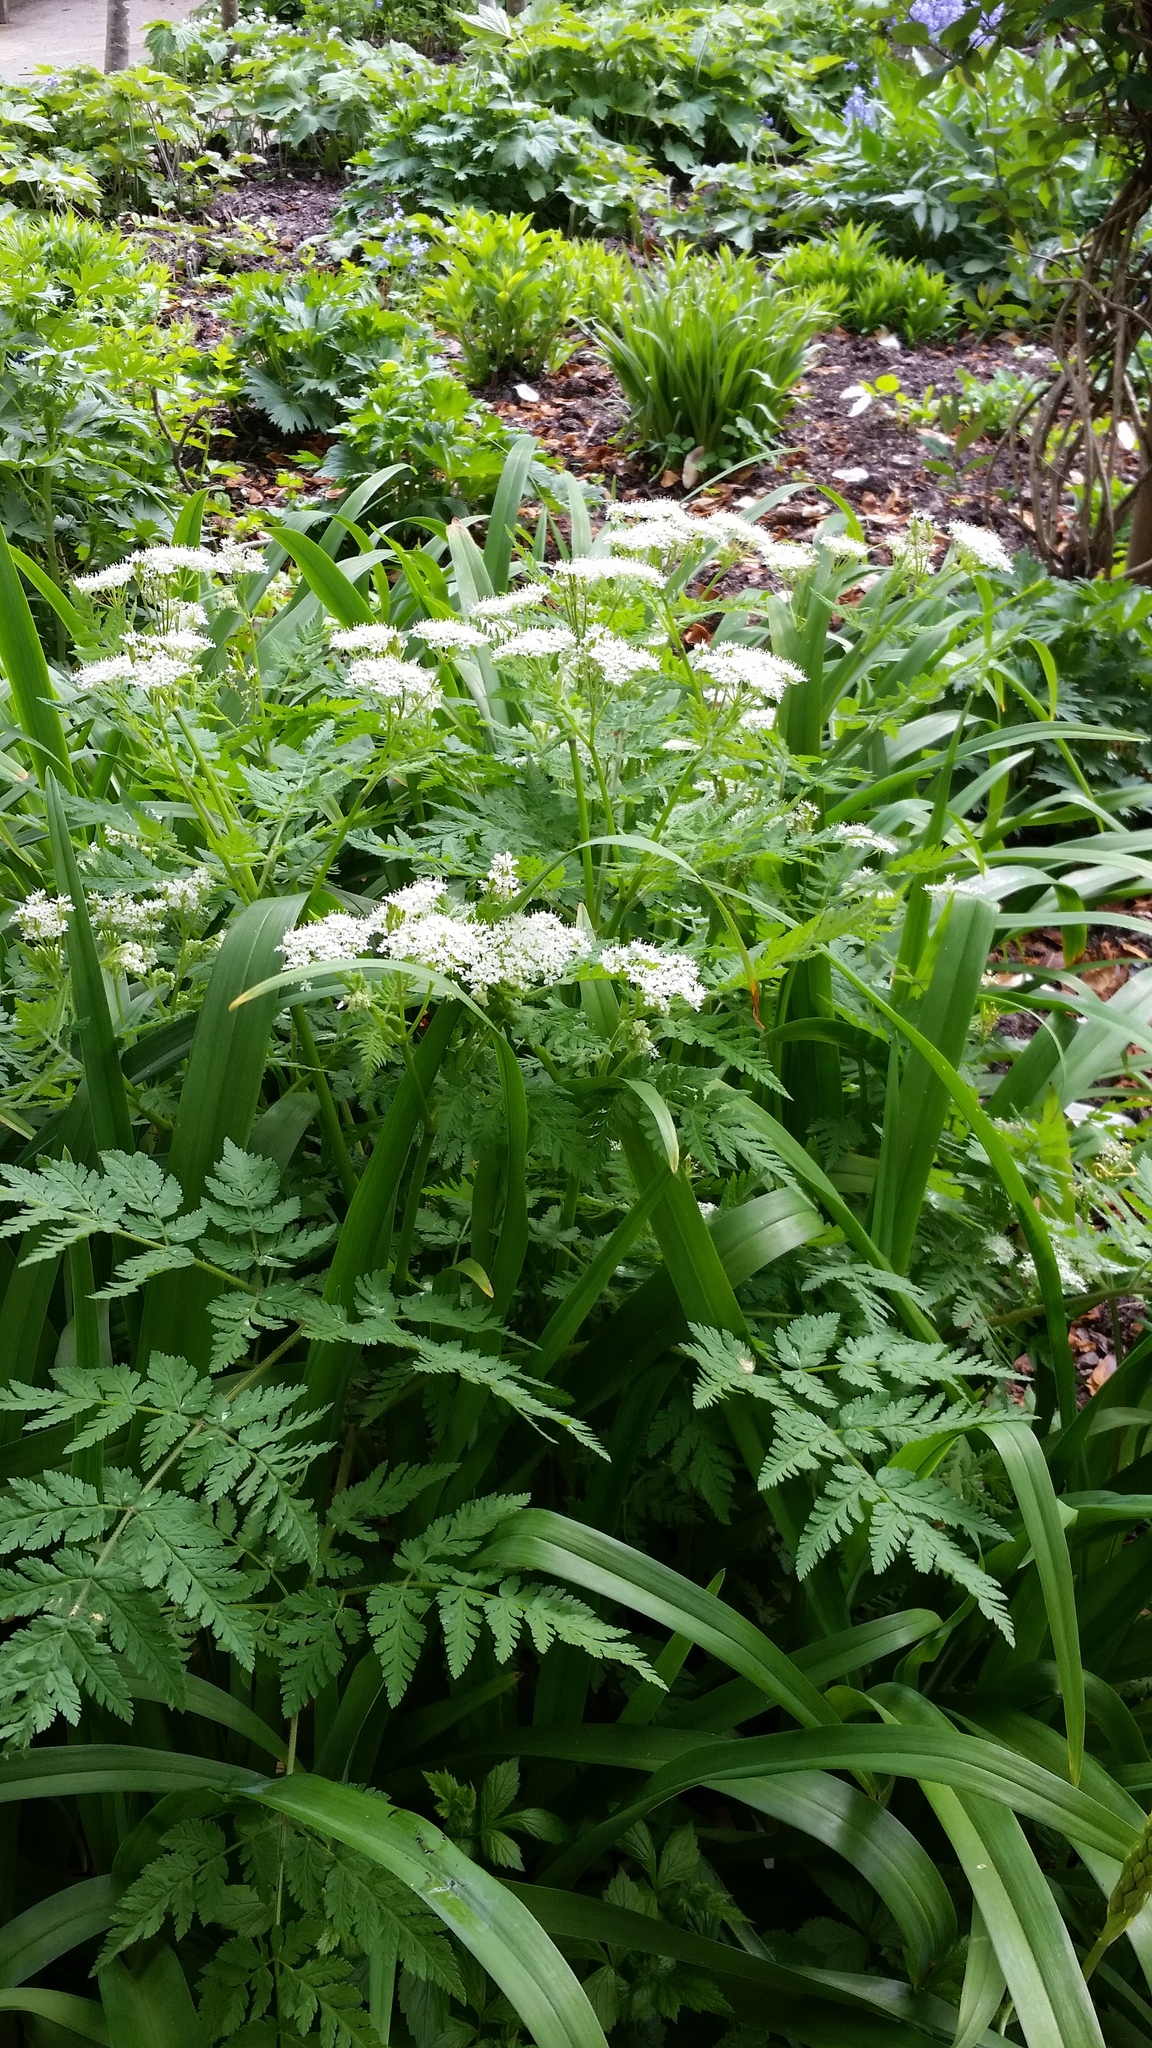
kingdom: Plantae
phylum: Tracheophyta
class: Magnoliopsida
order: Apiales
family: Apiaceae
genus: Myrrhis
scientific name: Myrrhis odorata
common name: Sweet cicely
